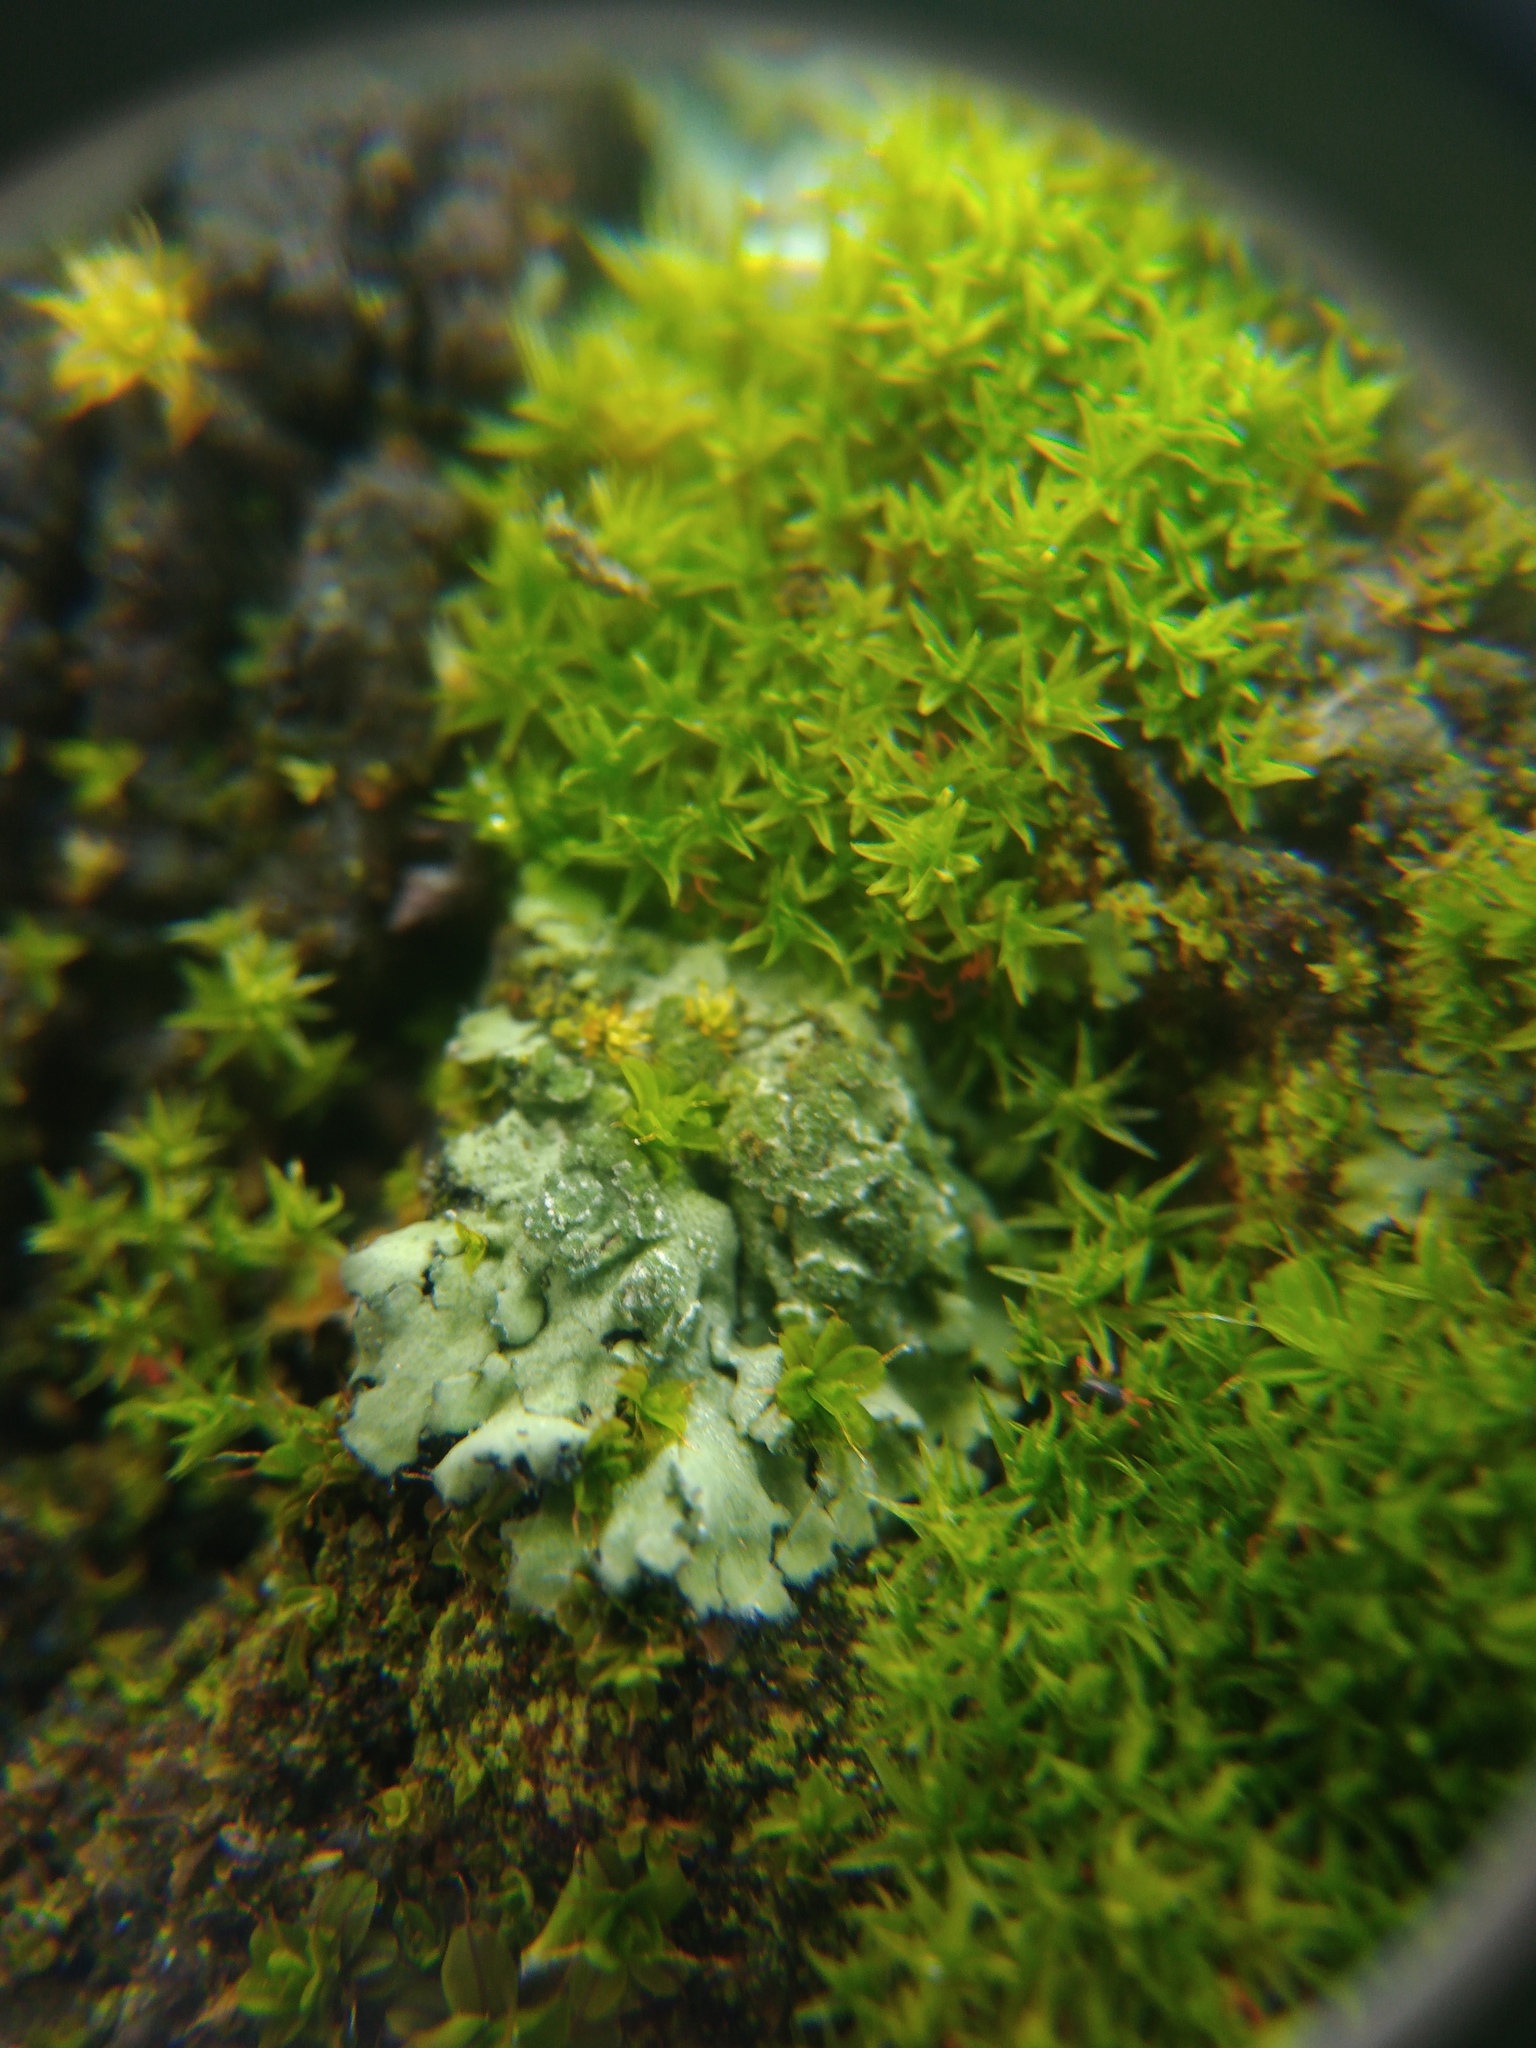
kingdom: Fungi
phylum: Ascomycota
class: Lecanoromycetes
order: Caliciales
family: Physciaceae
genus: Phaeophyscia
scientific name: Phaeophyscia orbicularis
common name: Mealy shadow lichen
